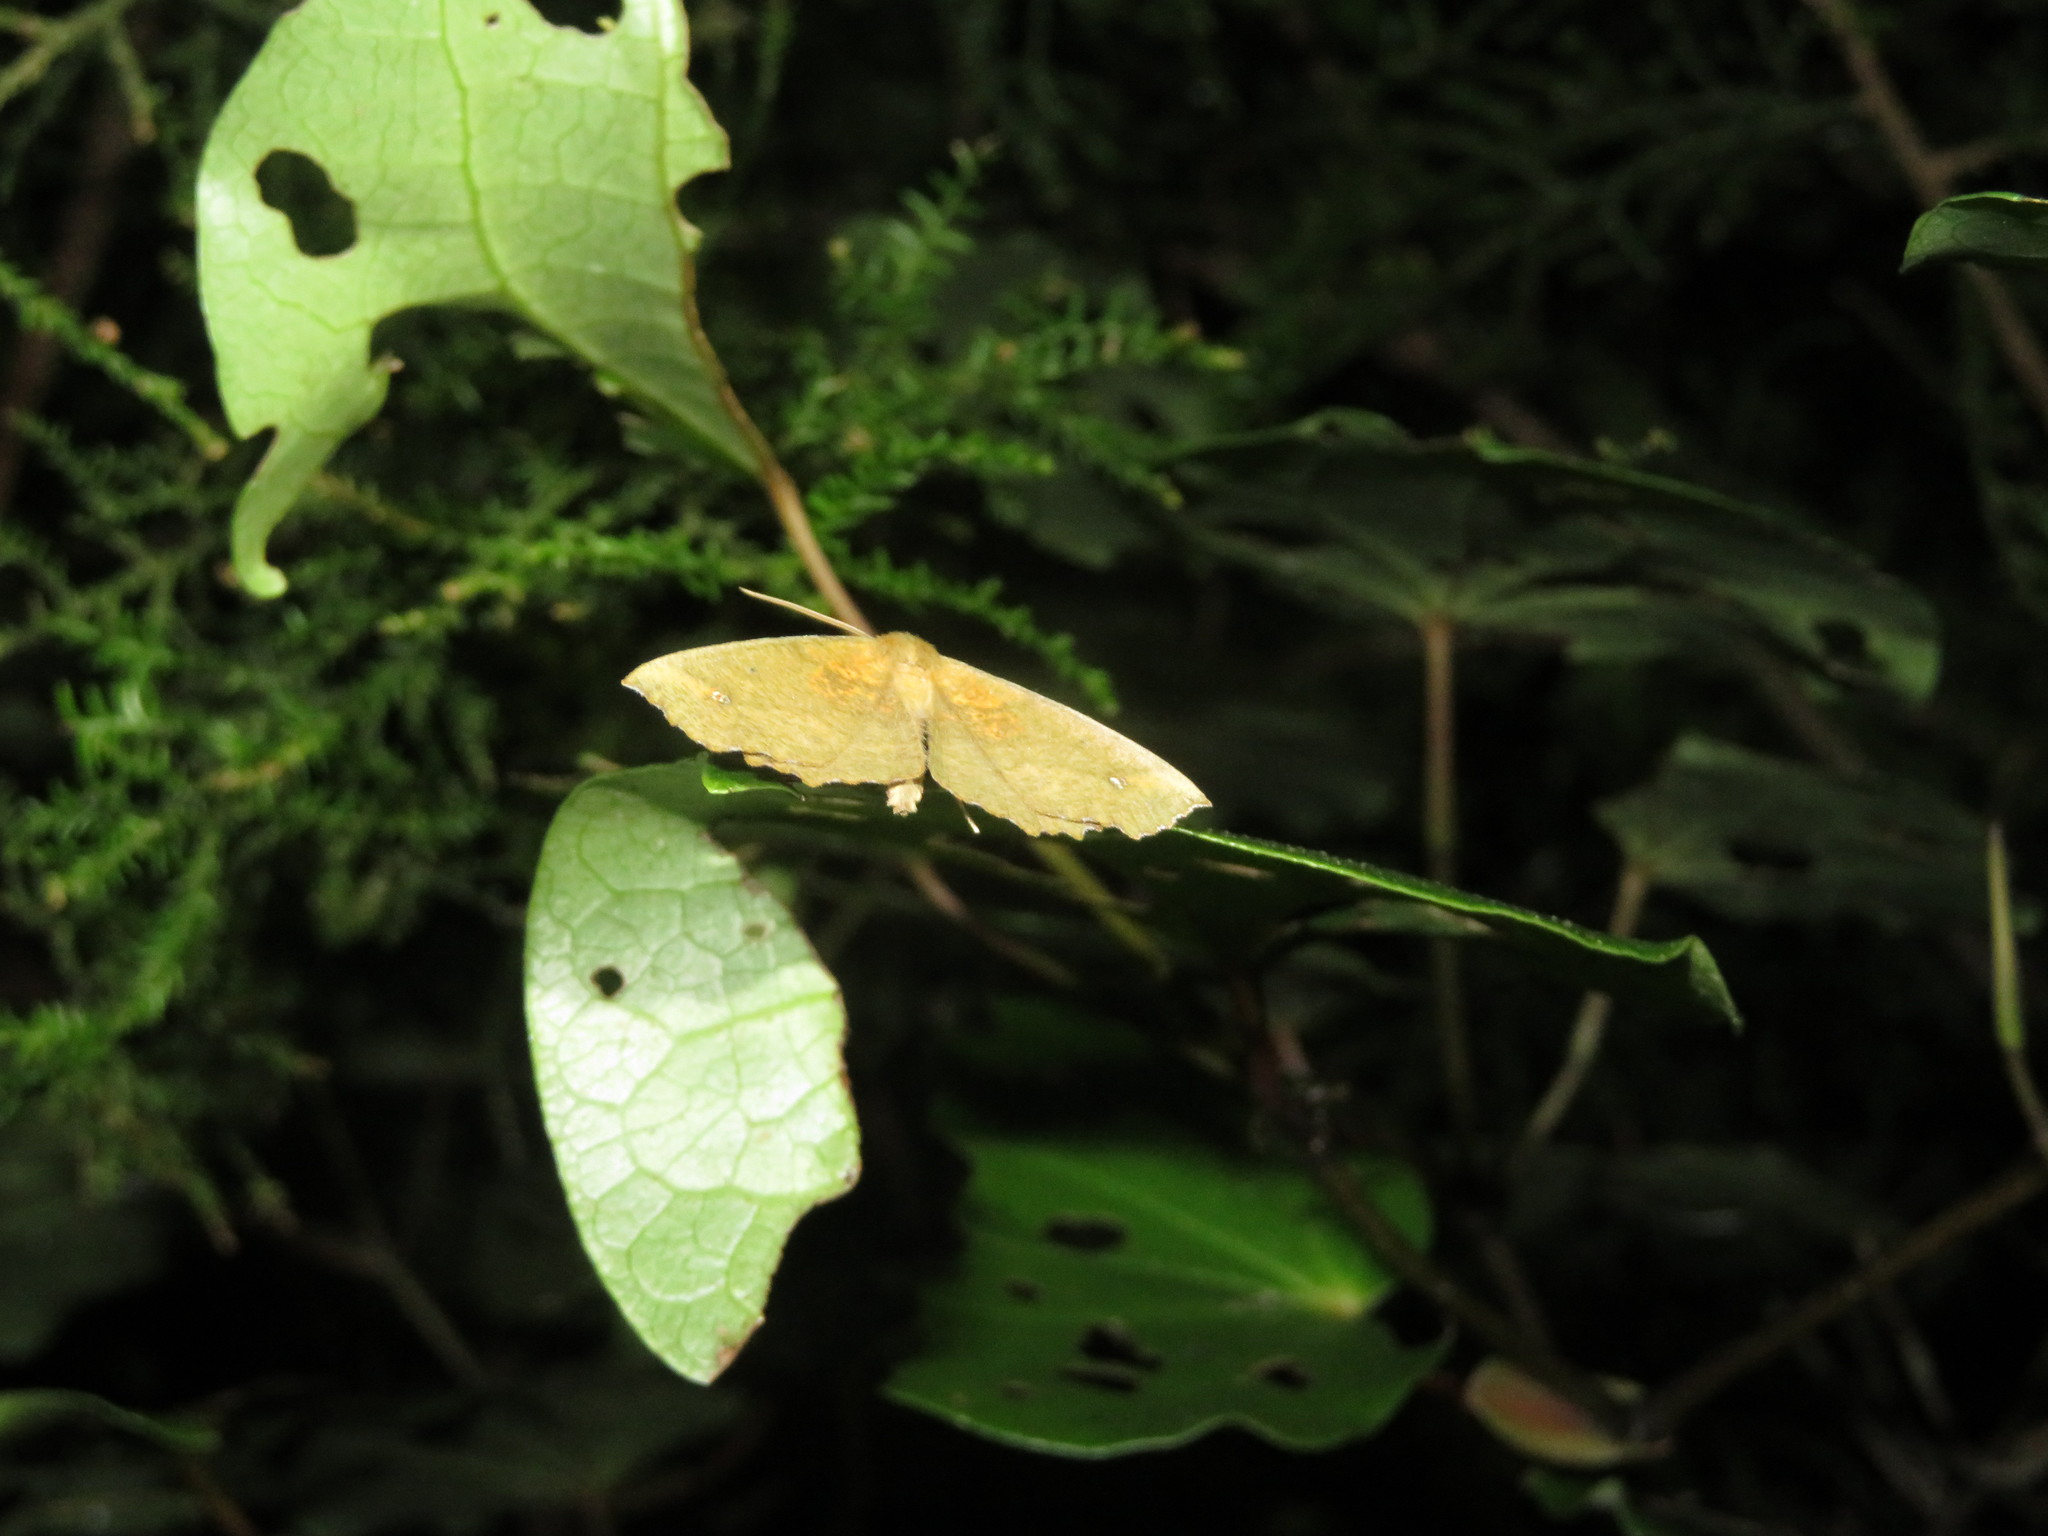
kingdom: Animalia
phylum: Arthropoda
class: Insecta
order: Lepidoptera
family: Geometridae
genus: Xyridacma
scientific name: Xyridacma alectoraria
